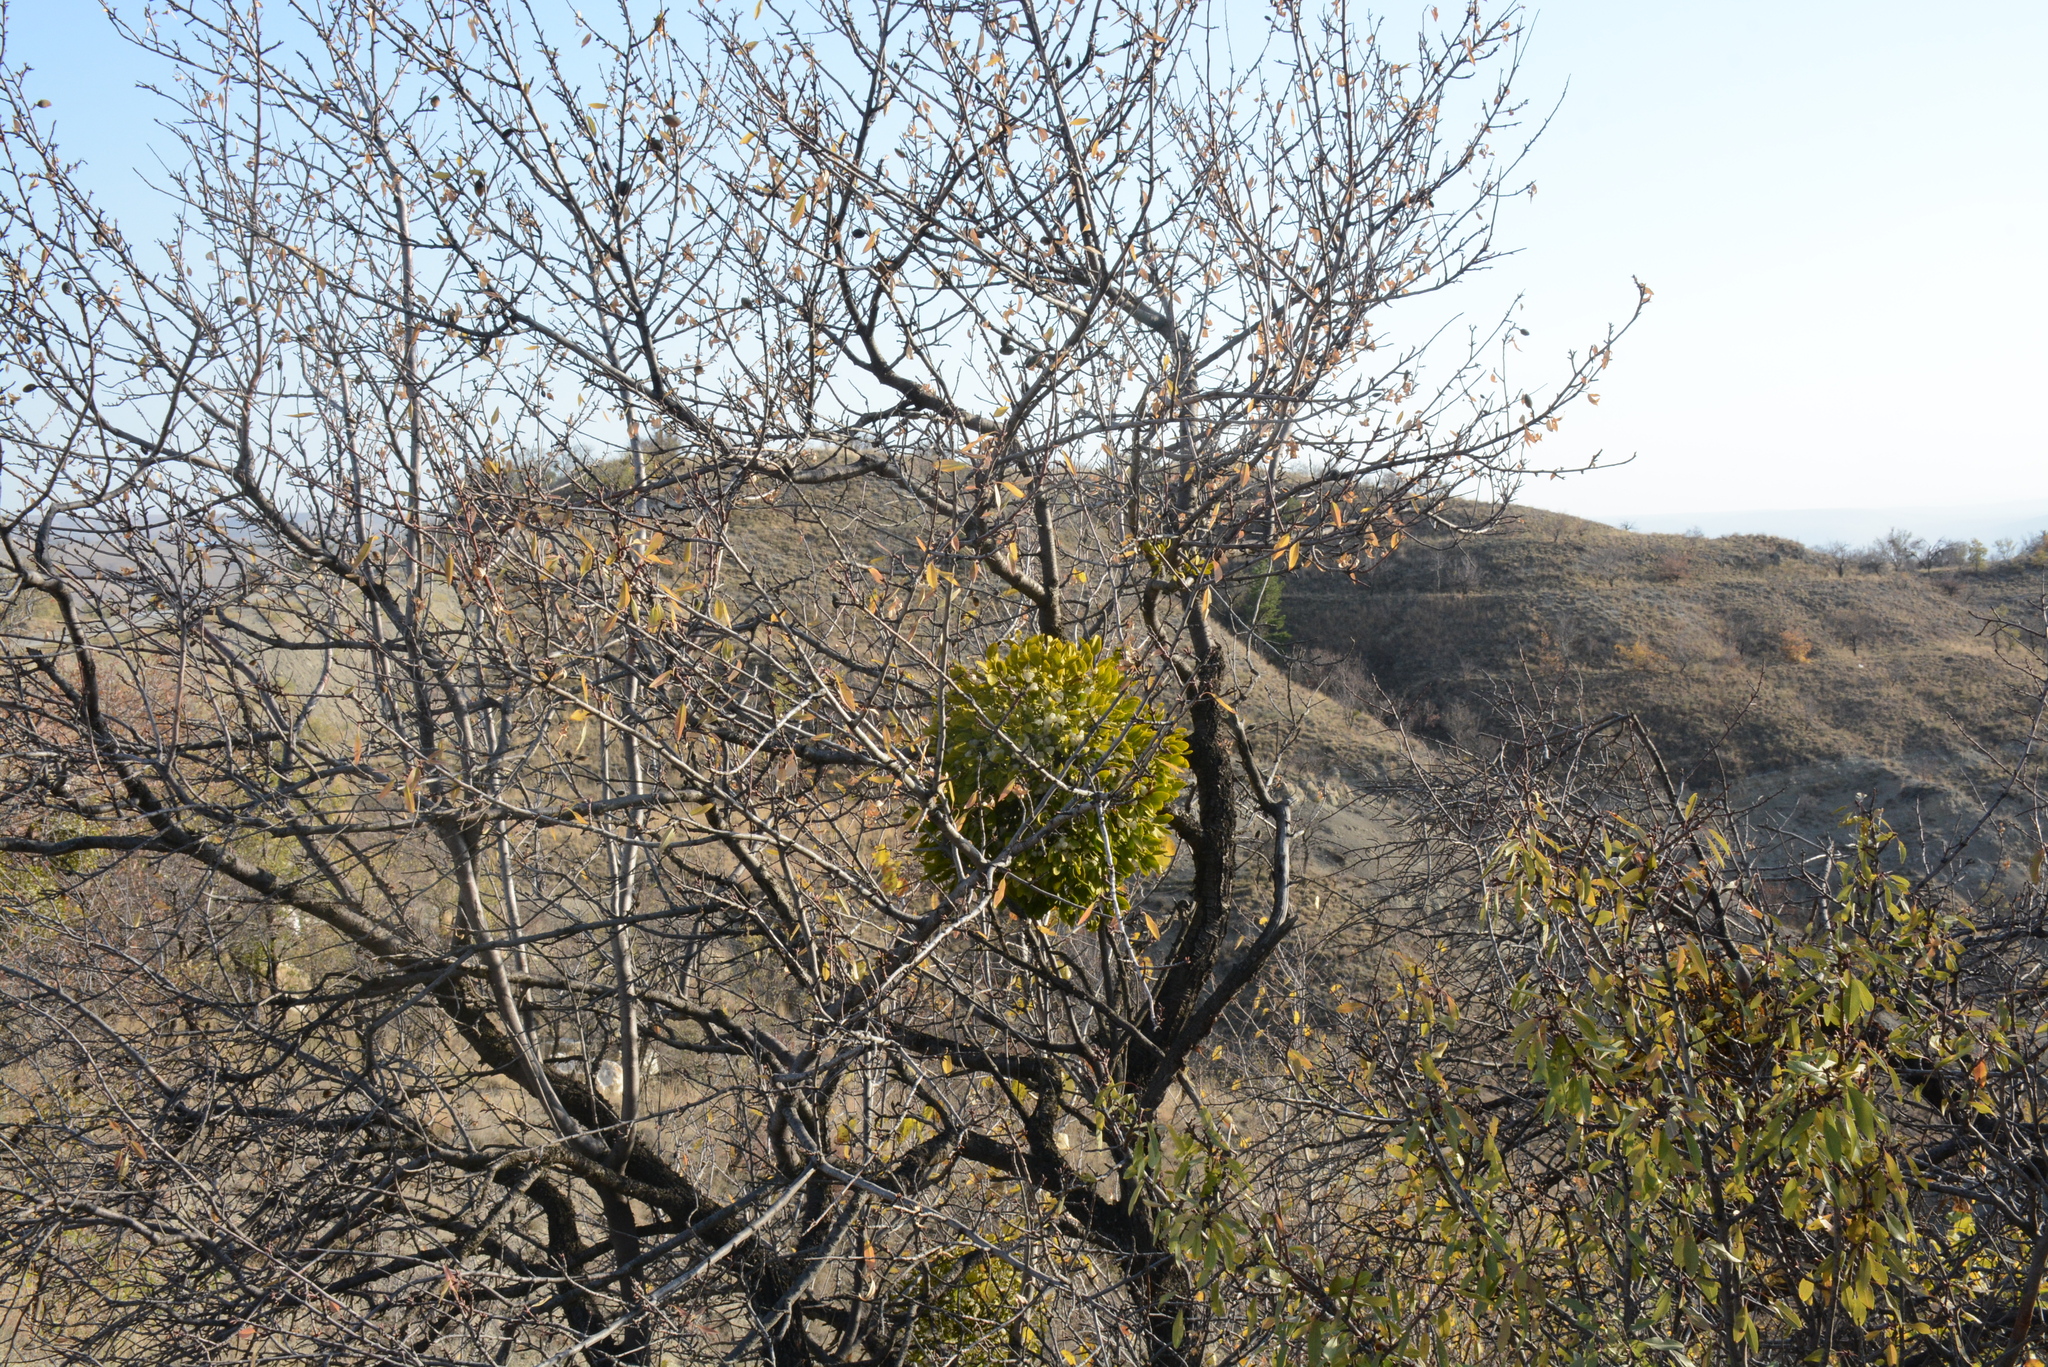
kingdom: Plantae
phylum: Tracheophyta
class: Magnoliopsida
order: Santalales
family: Viscaceae
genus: Viscum
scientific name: Viscum album
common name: Mistletoe
